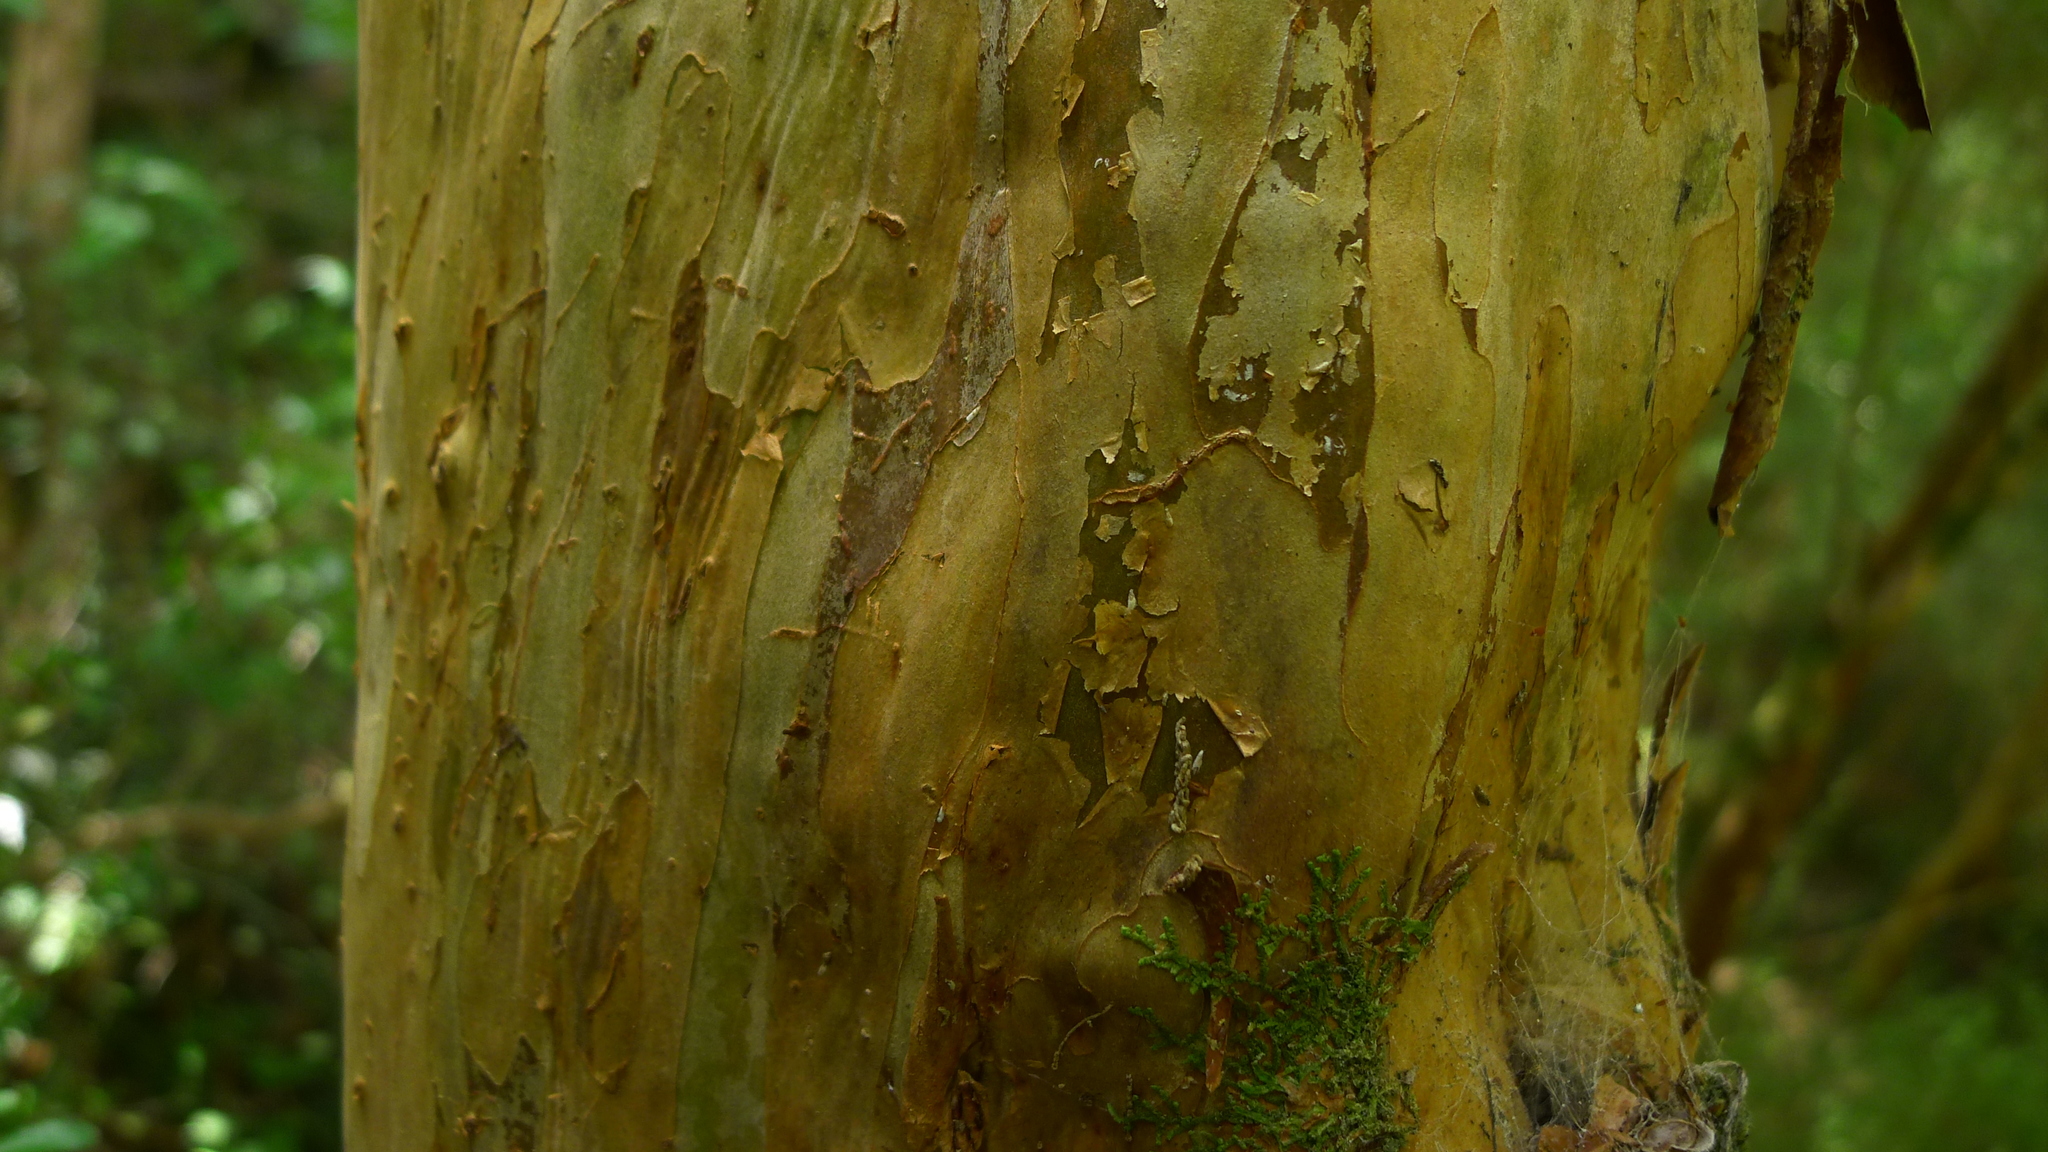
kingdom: Plantae
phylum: Tracheophyta
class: Magnoliopsida
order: Myrtales
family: Myrtaceae
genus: Lophomyrtus
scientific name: Lophomyrtus obcordata
